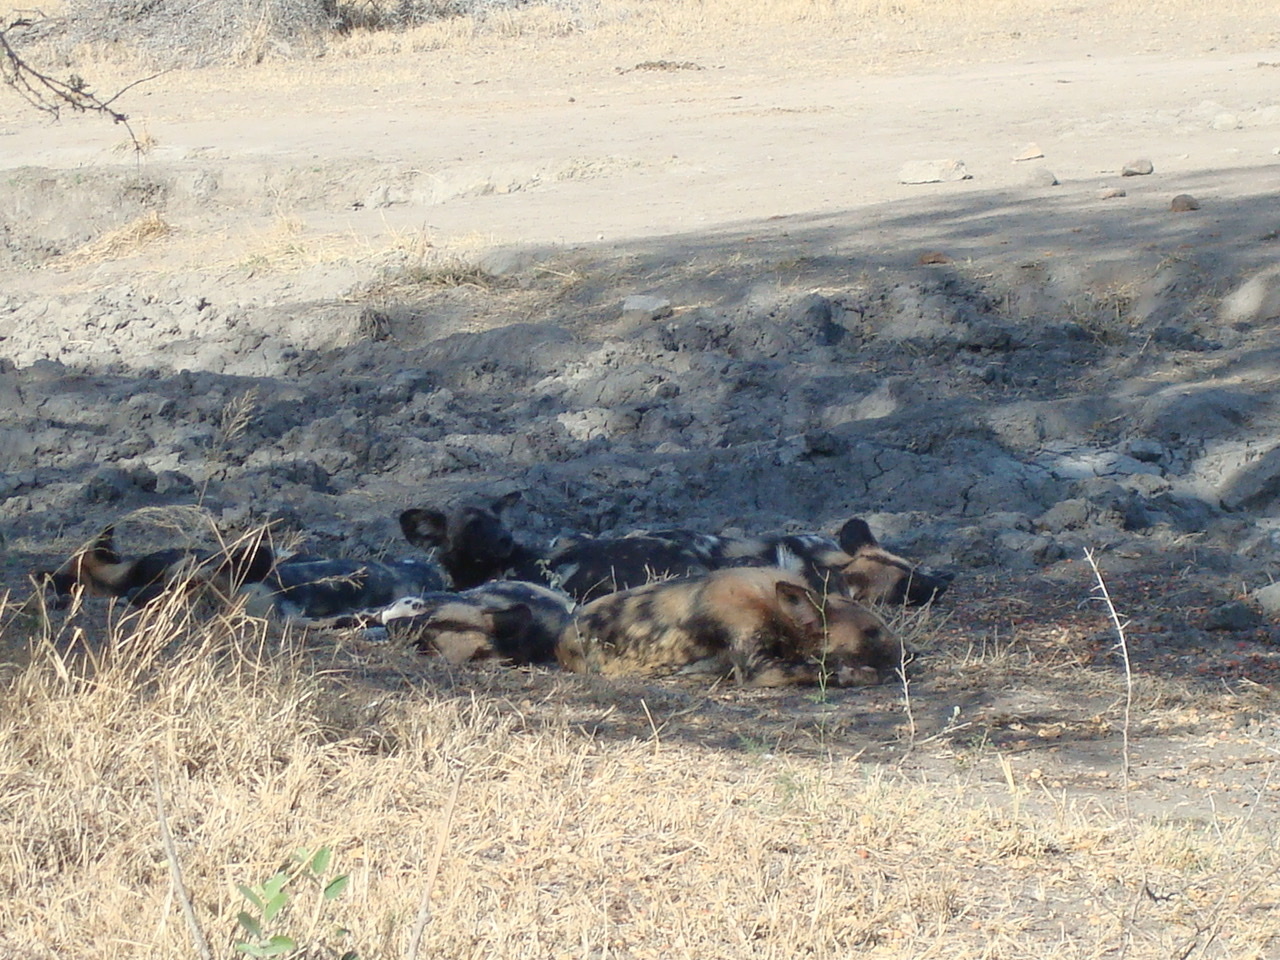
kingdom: Animalia
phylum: Chordata
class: Mammalia
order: Carnivora
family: Canidae
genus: Lycaon
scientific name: Lycaon pictus
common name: African wild dog
